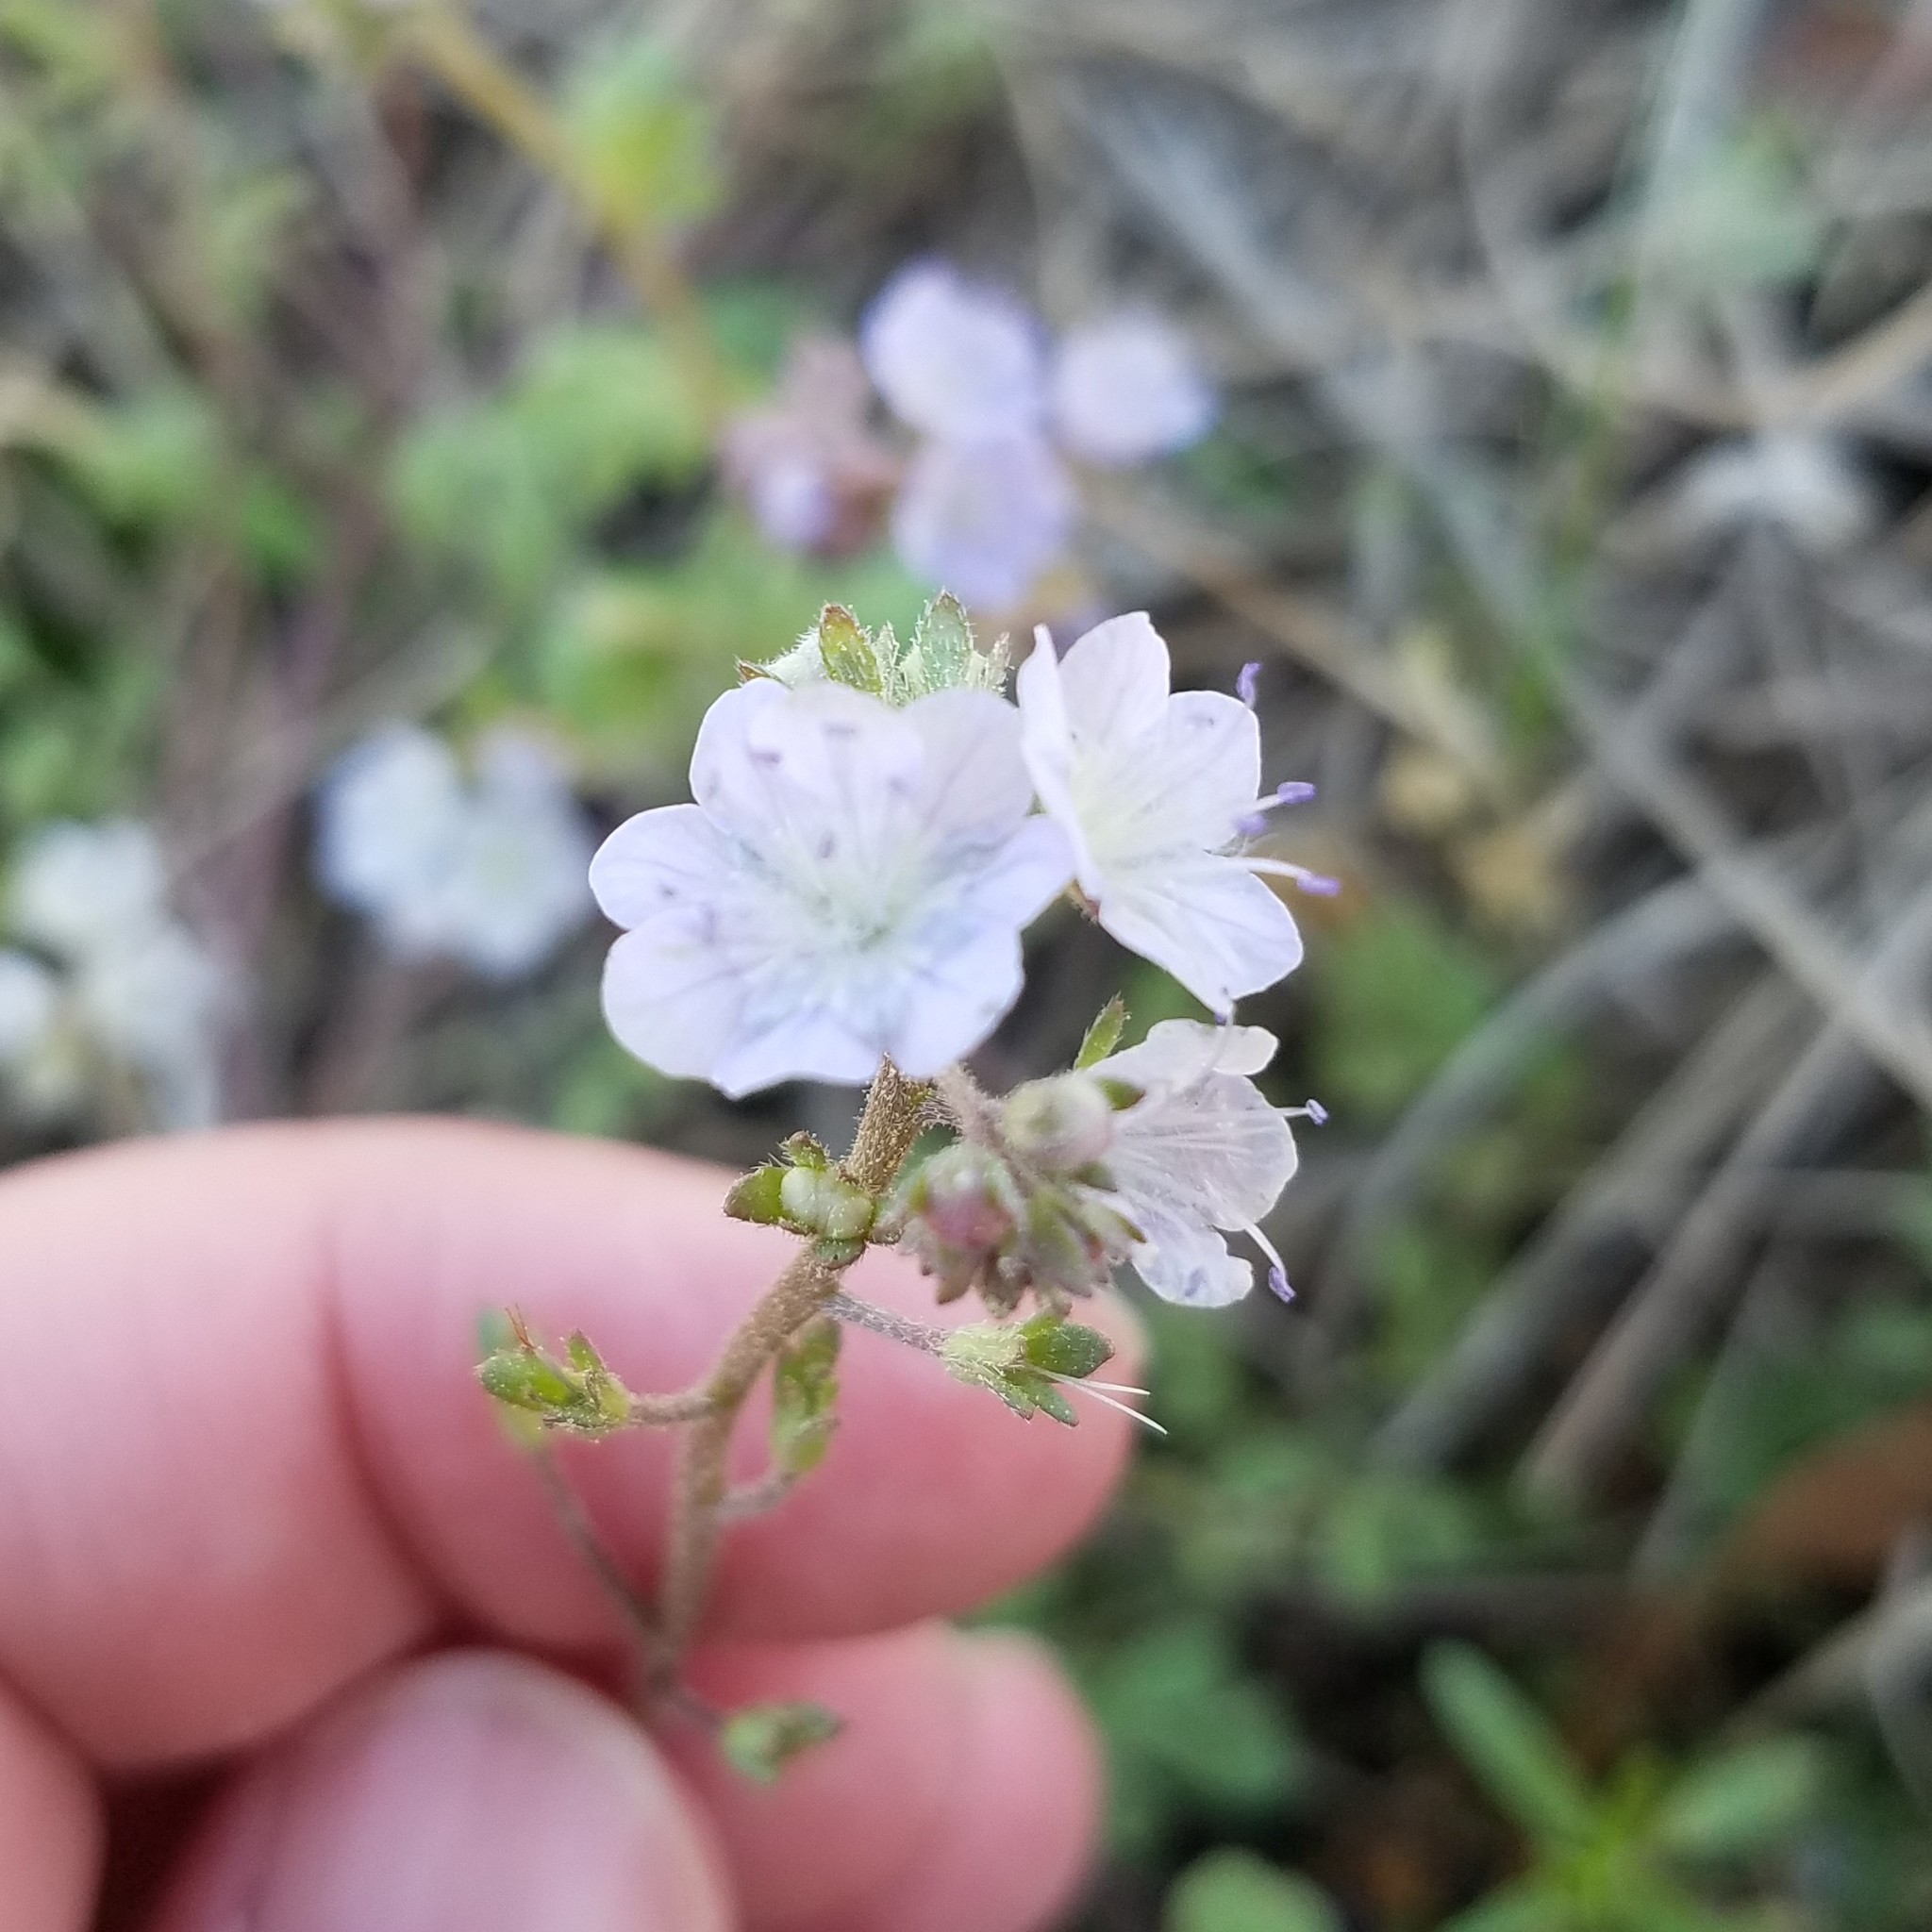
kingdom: Plantae
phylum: Tracheophyta
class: Magnoliopsida
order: Boraginales
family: Hydrophyllaceae
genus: Phacelia
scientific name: Phacelia dubia
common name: Appalachian phacelia
